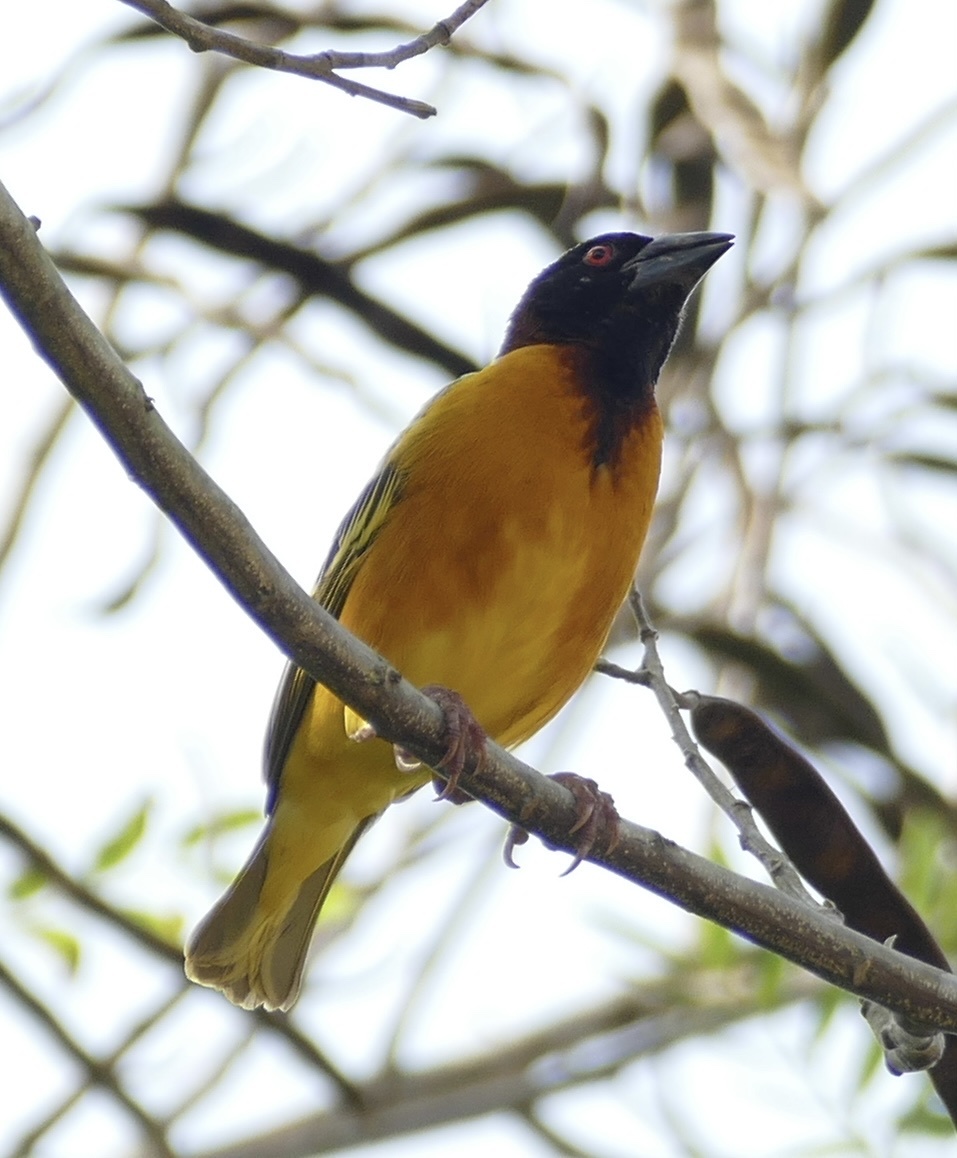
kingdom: Animalia
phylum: Chordata
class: Aves
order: Passeriformes
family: Ploceidae
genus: Ploceus
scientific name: Ploceus cucullatus
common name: Village weaver
